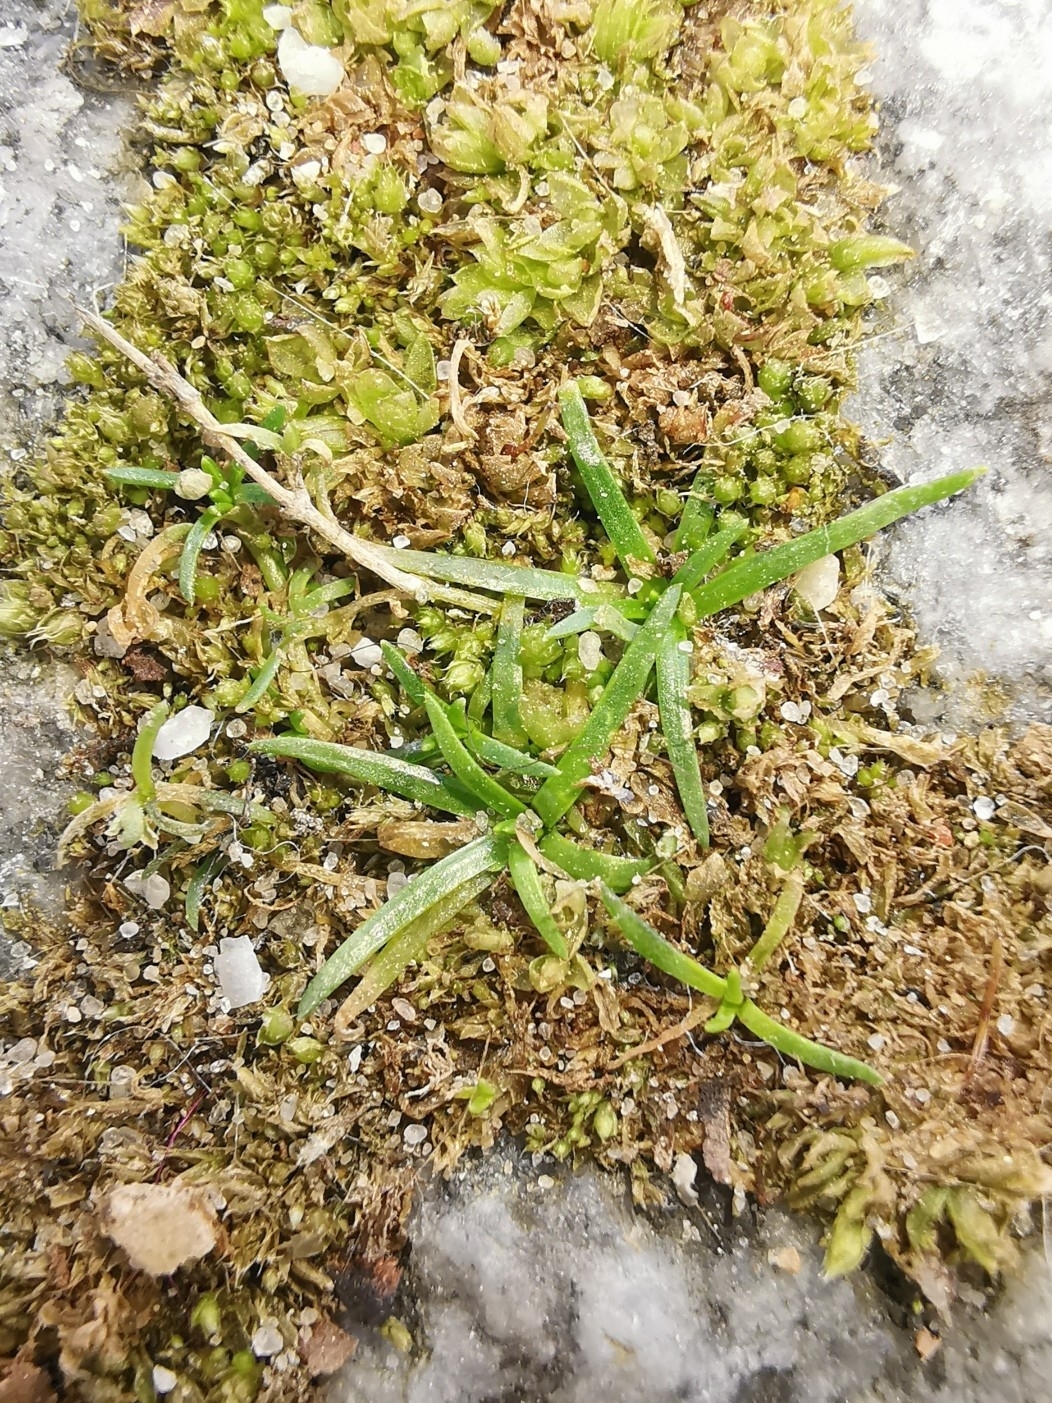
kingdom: Plantae
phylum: Tracheophyta
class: Magnoliopsida
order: Caryophyllales
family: Caryophyllaceae
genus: Sagina
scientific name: Sagina procumbens
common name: Procumbent pearlwort
